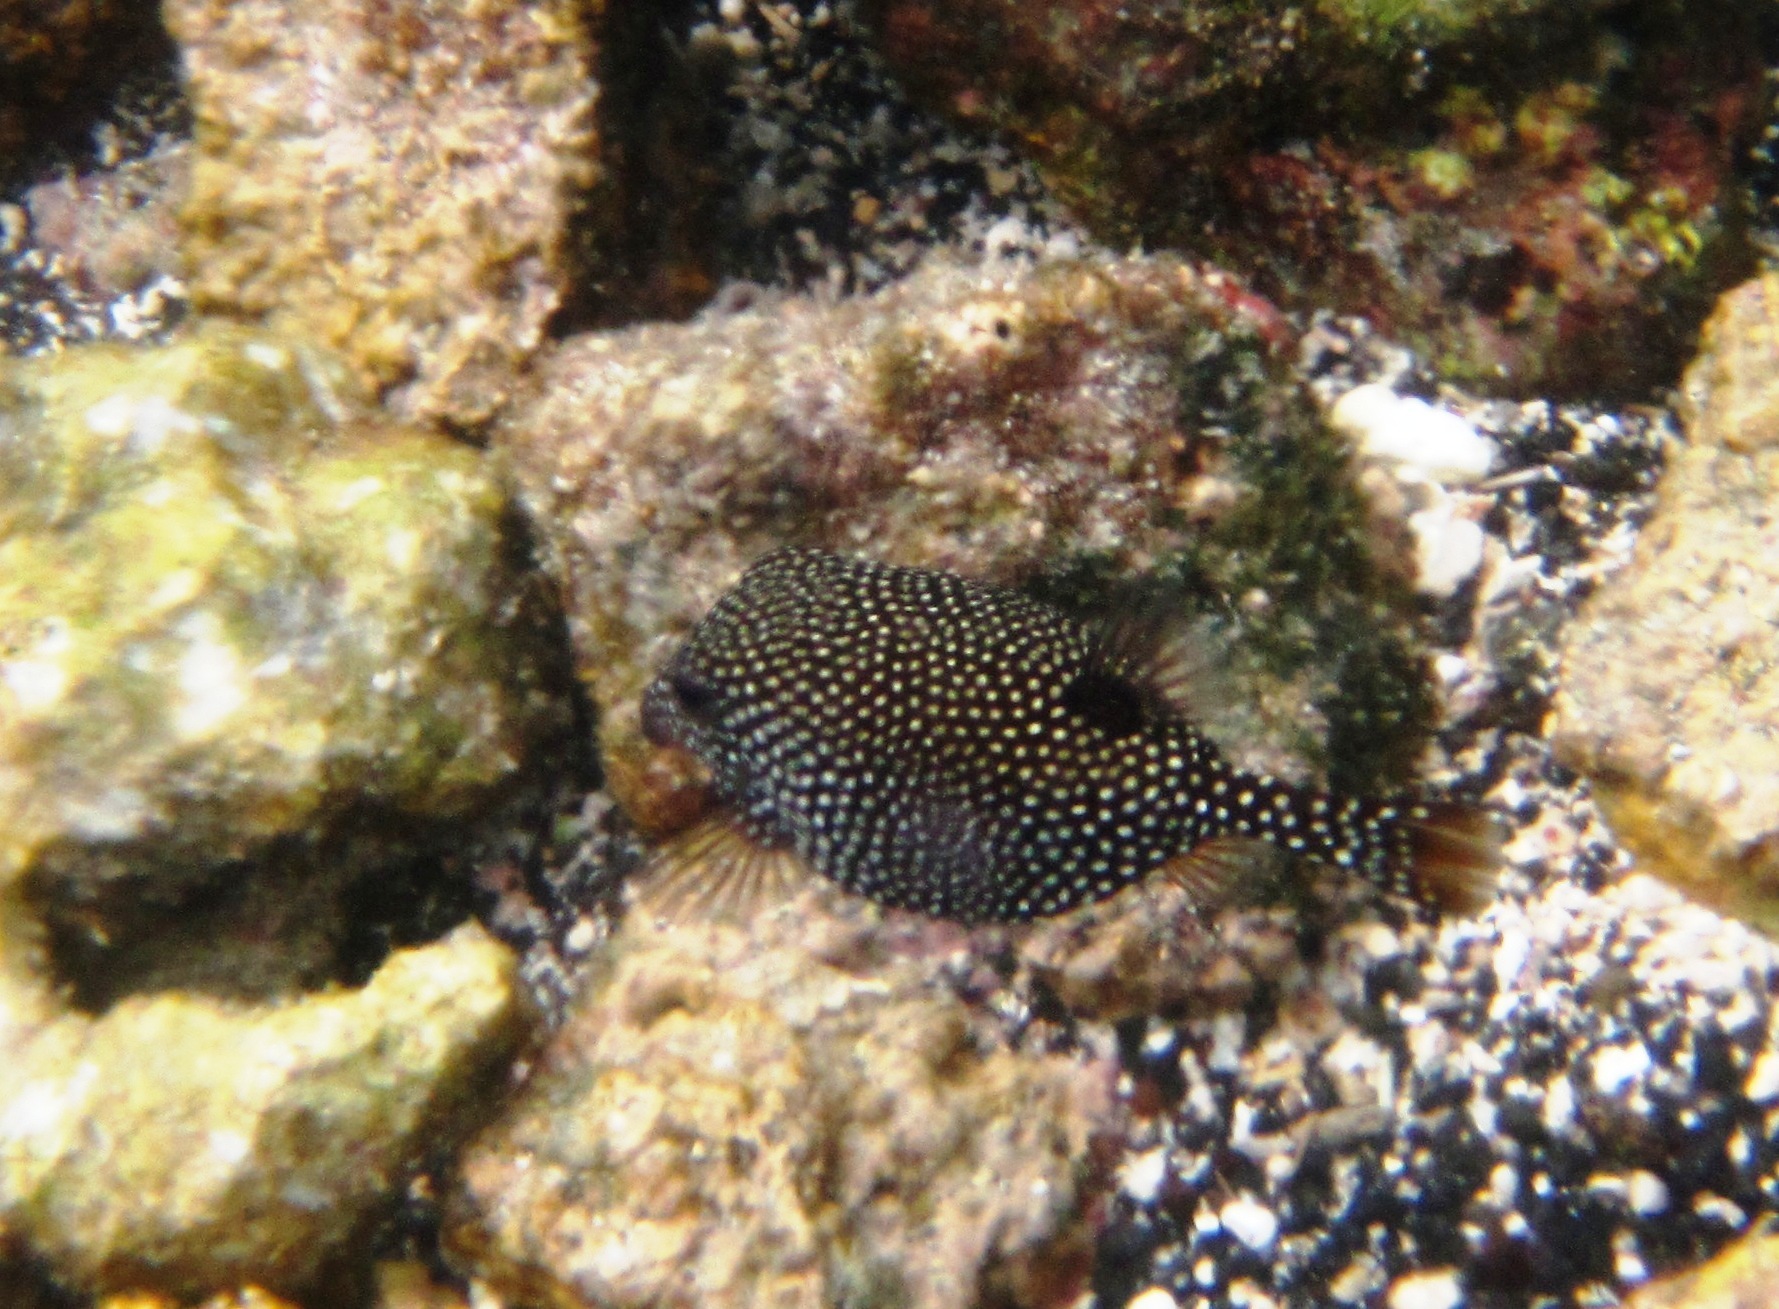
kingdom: Animalia
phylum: Chordata
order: Tetraodontiformes
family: Ostraciidae
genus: Ostracion
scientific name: Ostracion meleagris
